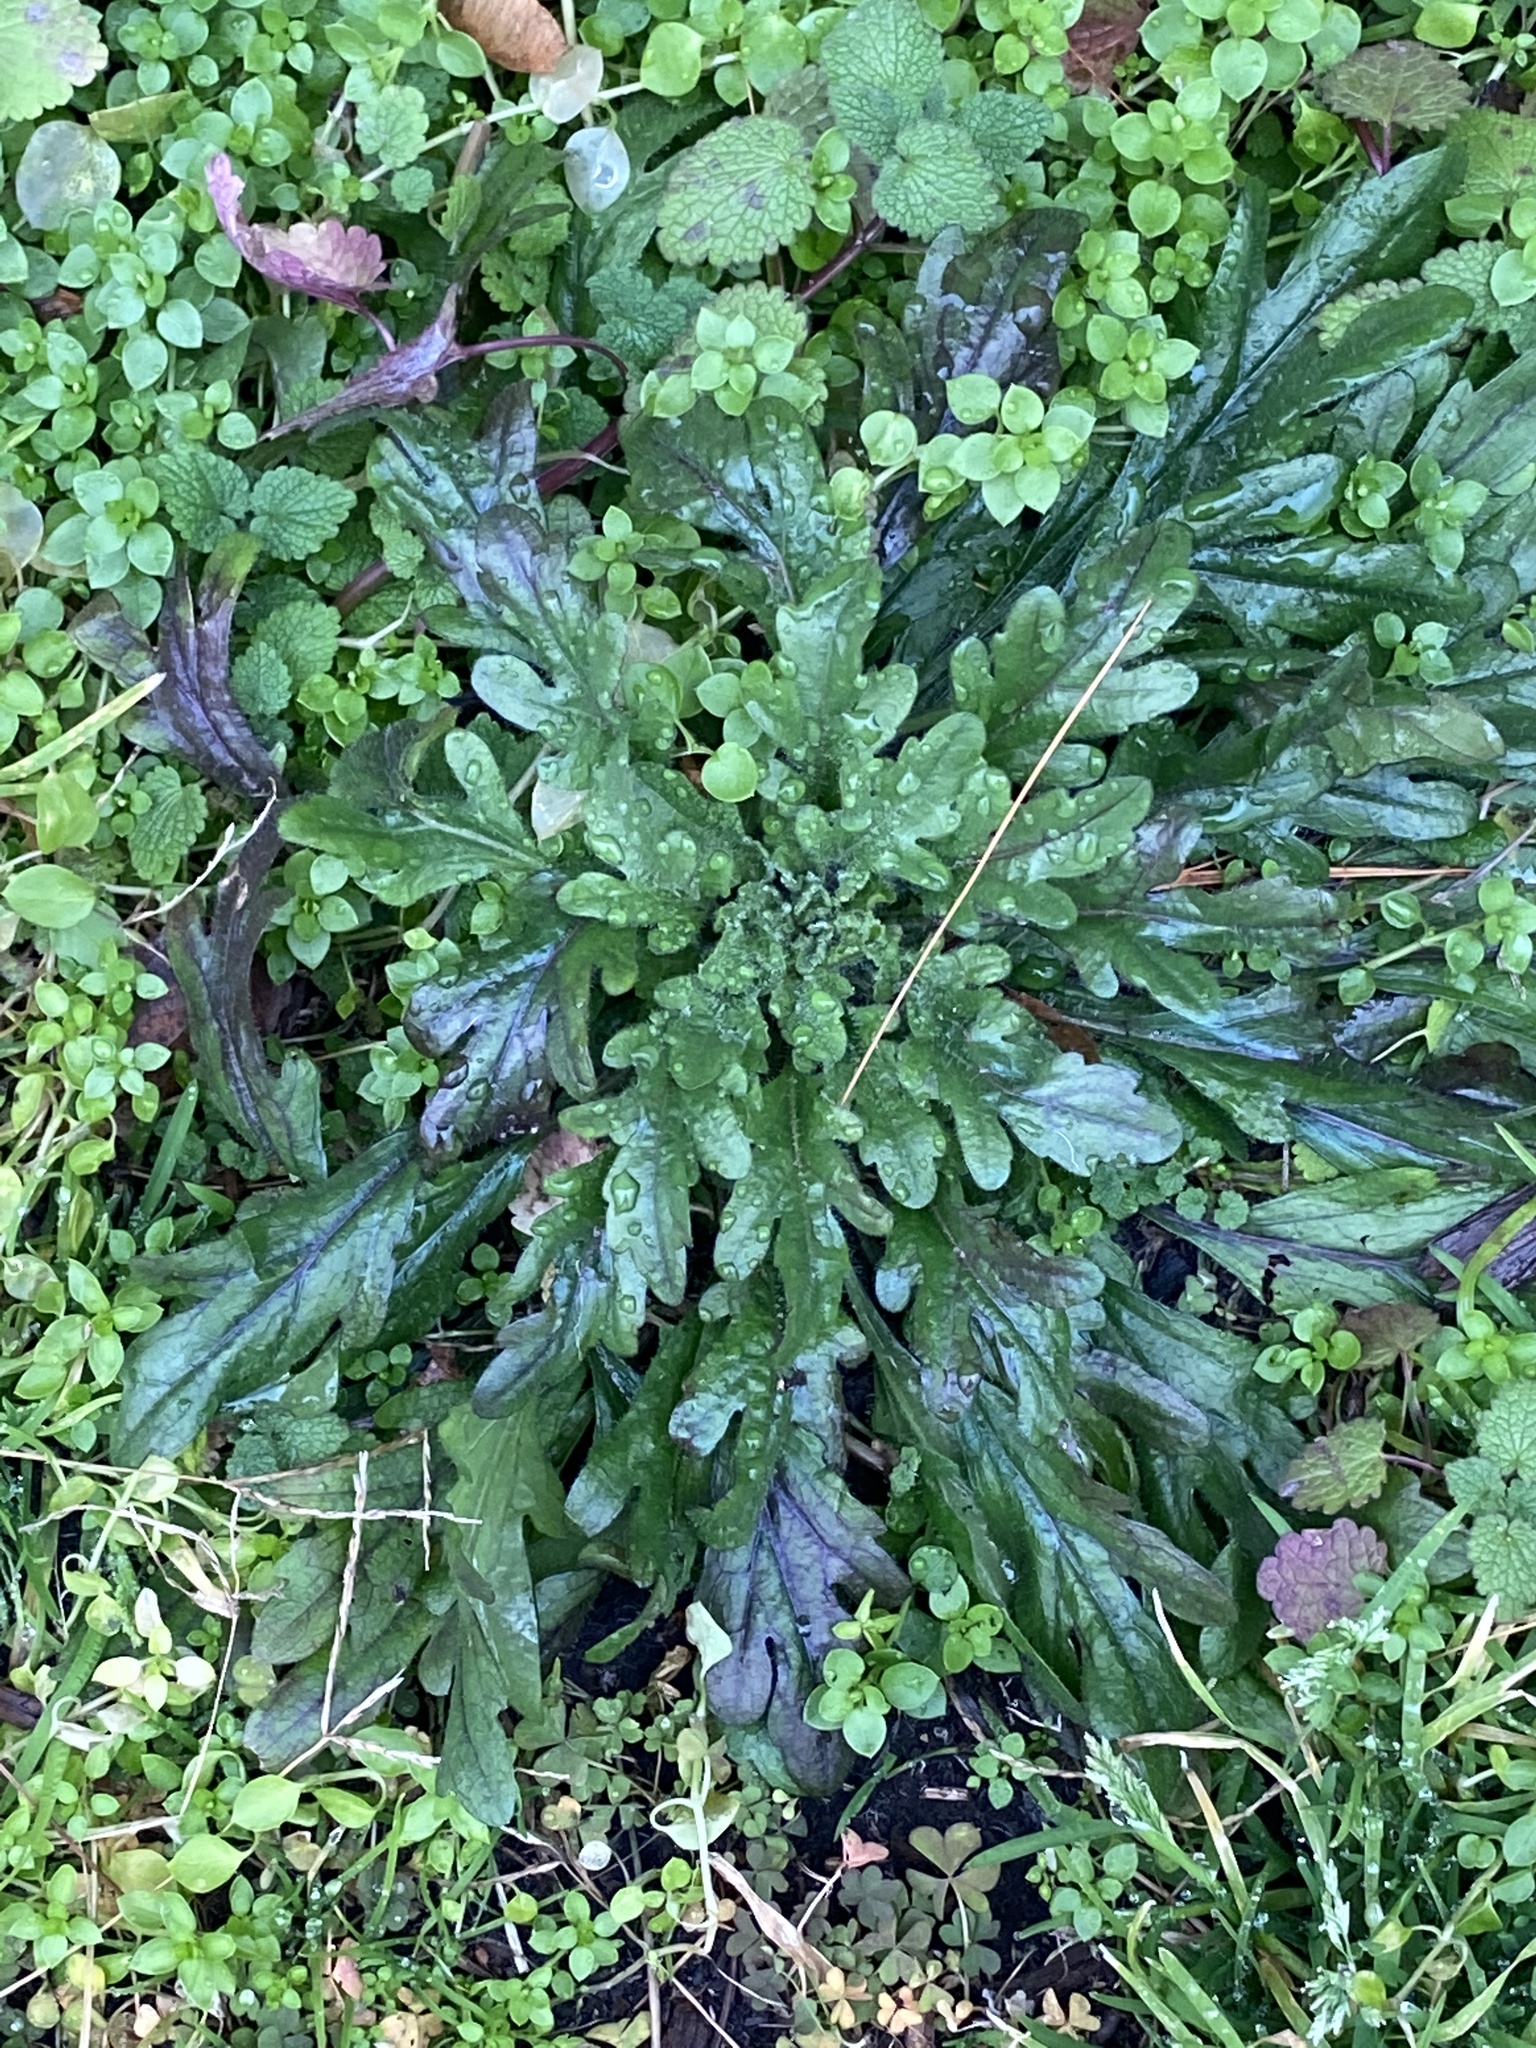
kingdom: Plantae
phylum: Tracheophyta
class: Magnoliopsida
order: Asterales
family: Asteraceae
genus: Erigeron
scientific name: Erigeron canadensis
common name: Canadian fleabane
